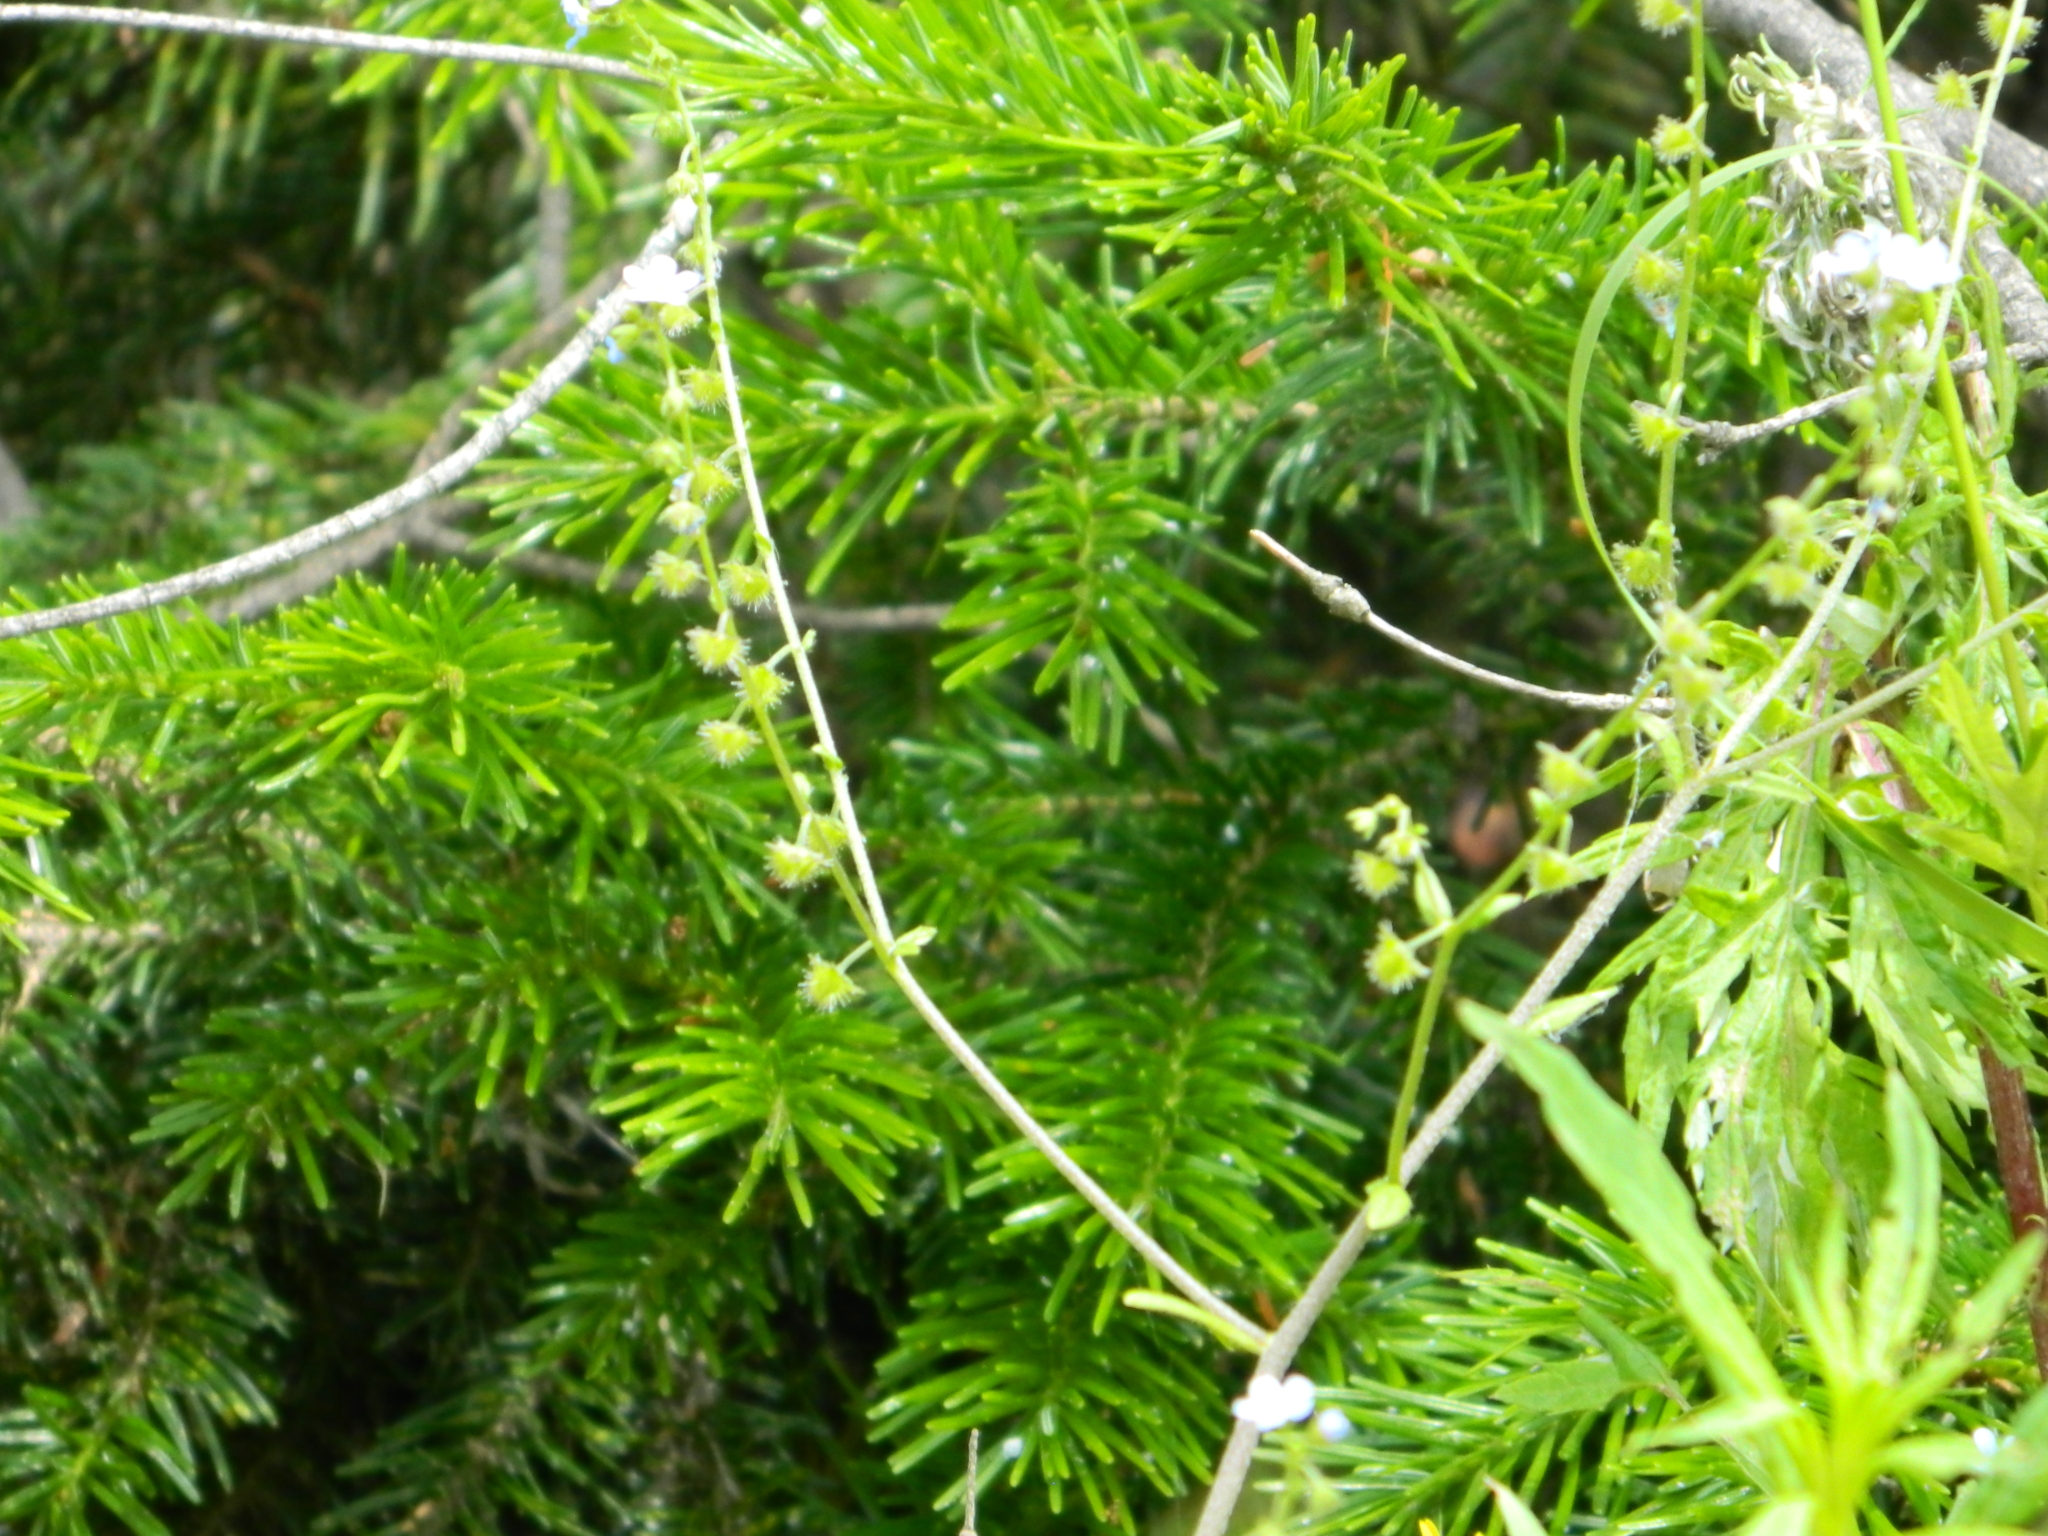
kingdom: Plantae
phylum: Tracheophyta
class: Magnoliopsida
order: Boraginales
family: Boraginaceae
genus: Hackelia
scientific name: Hackelia deflexa
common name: Nodding stickseed
